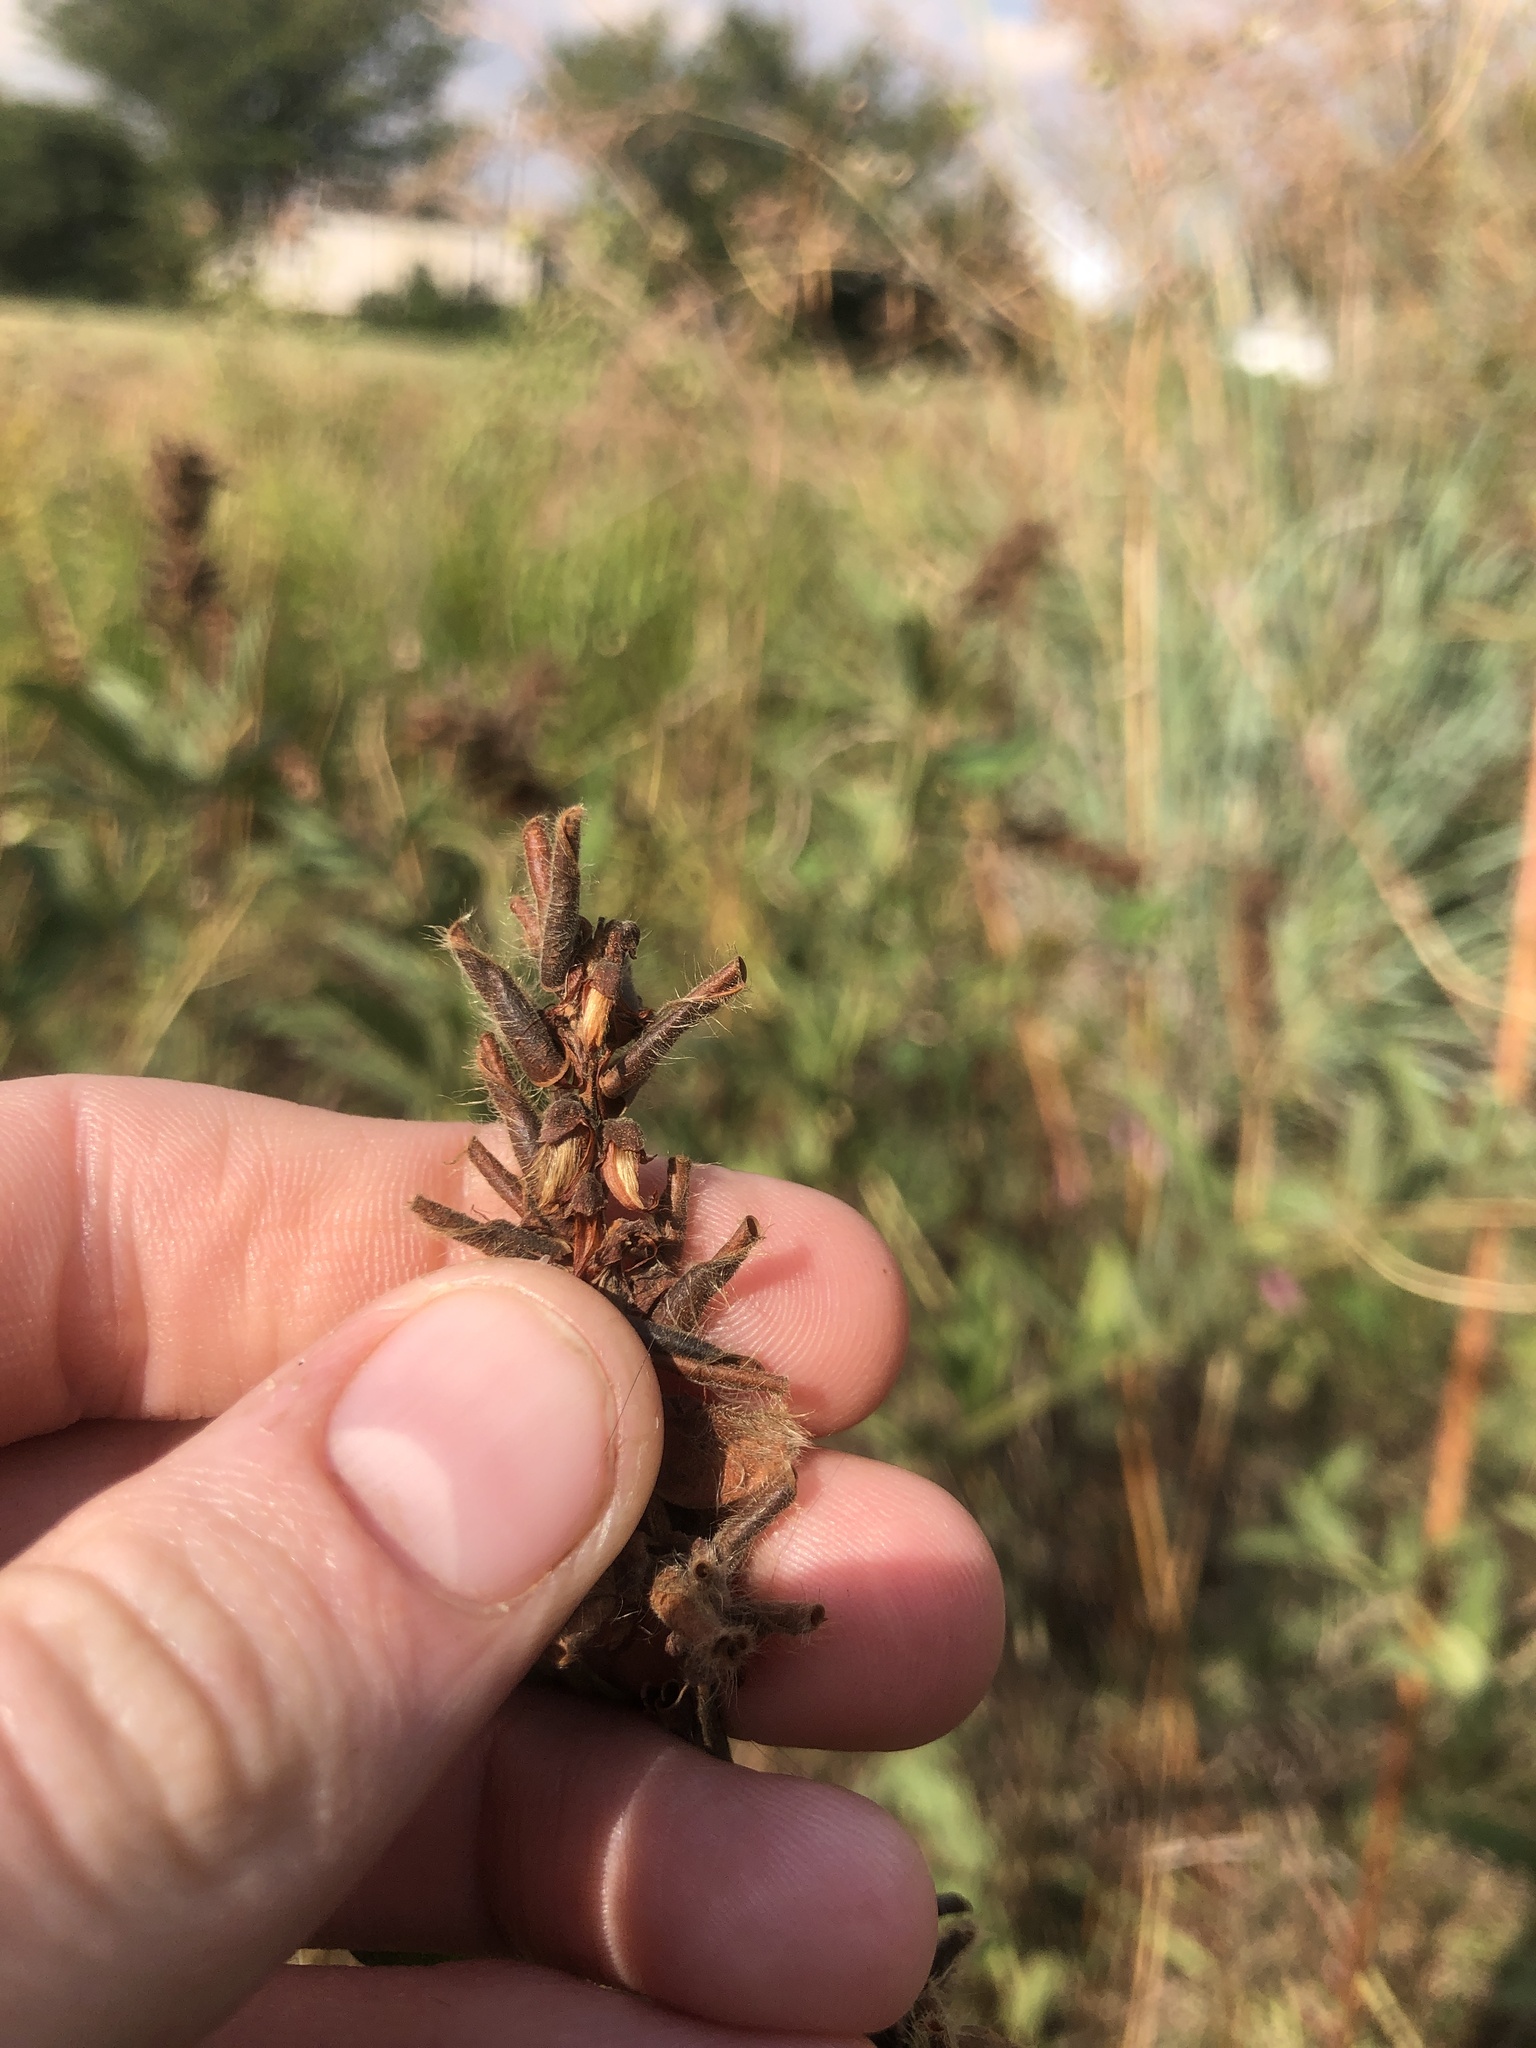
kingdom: Plantae
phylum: Tracheophyta
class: Magnoliopsida
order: Fabales
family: Fabaceae
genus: Eriosema
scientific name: Eriosema nutans
